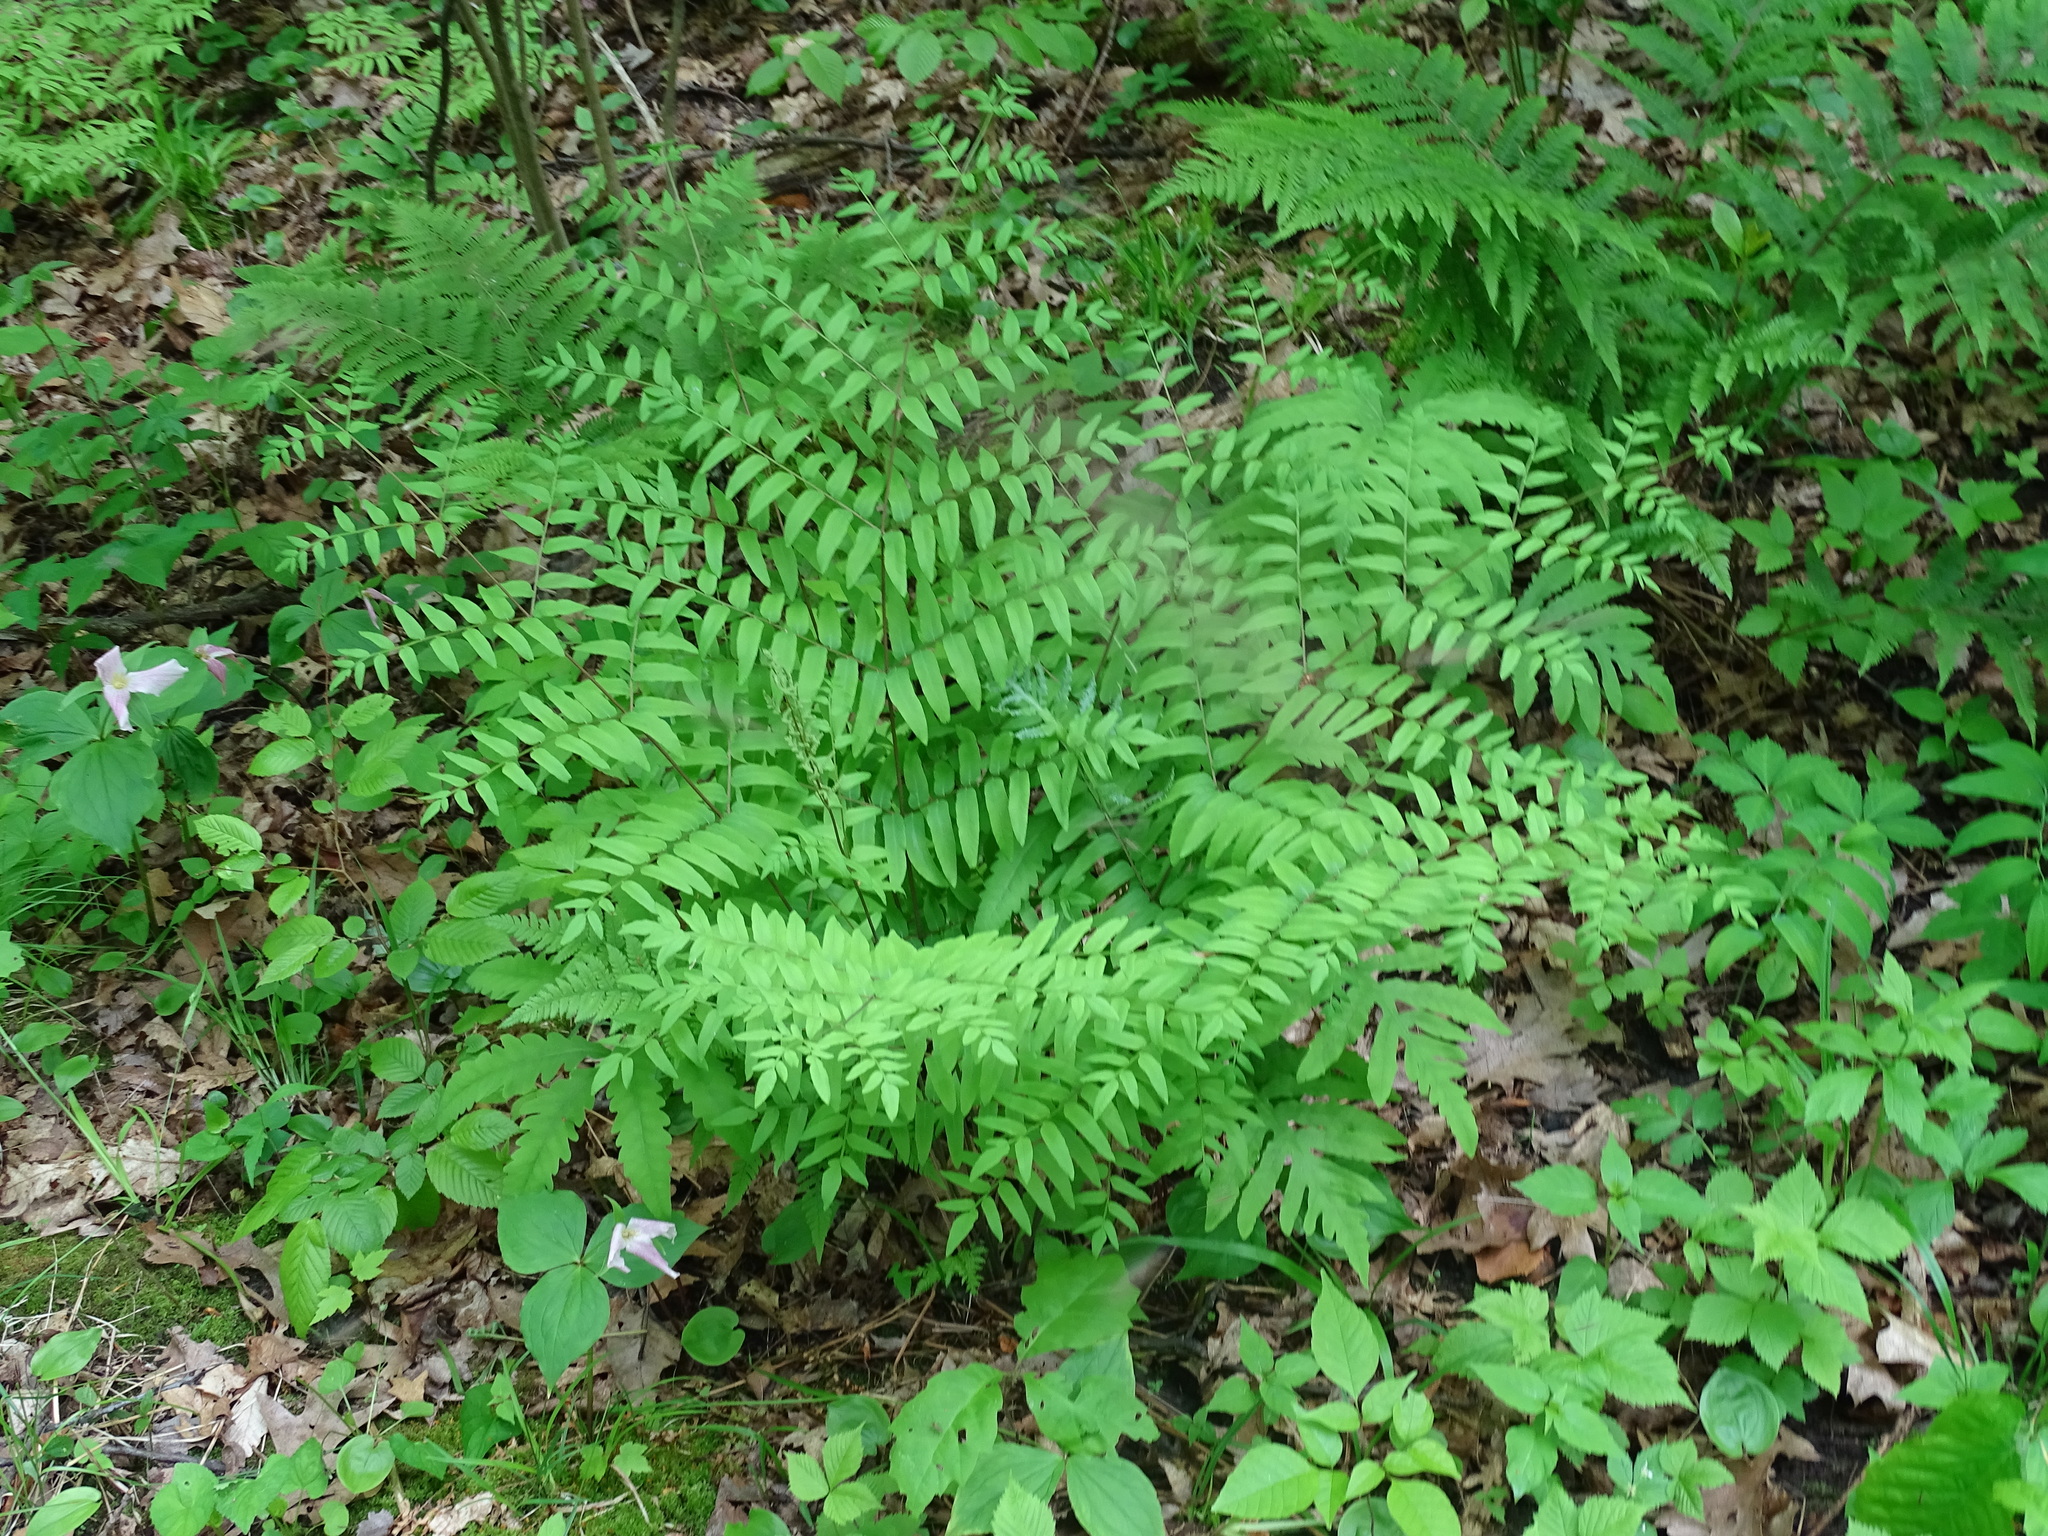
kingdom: Plantae
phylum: Tracheophyta
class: Polypodiopsida
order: Osmundales
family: Osmundaceae
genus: Osmunda
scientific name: Osmunda spectabilis
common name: American royal fern
